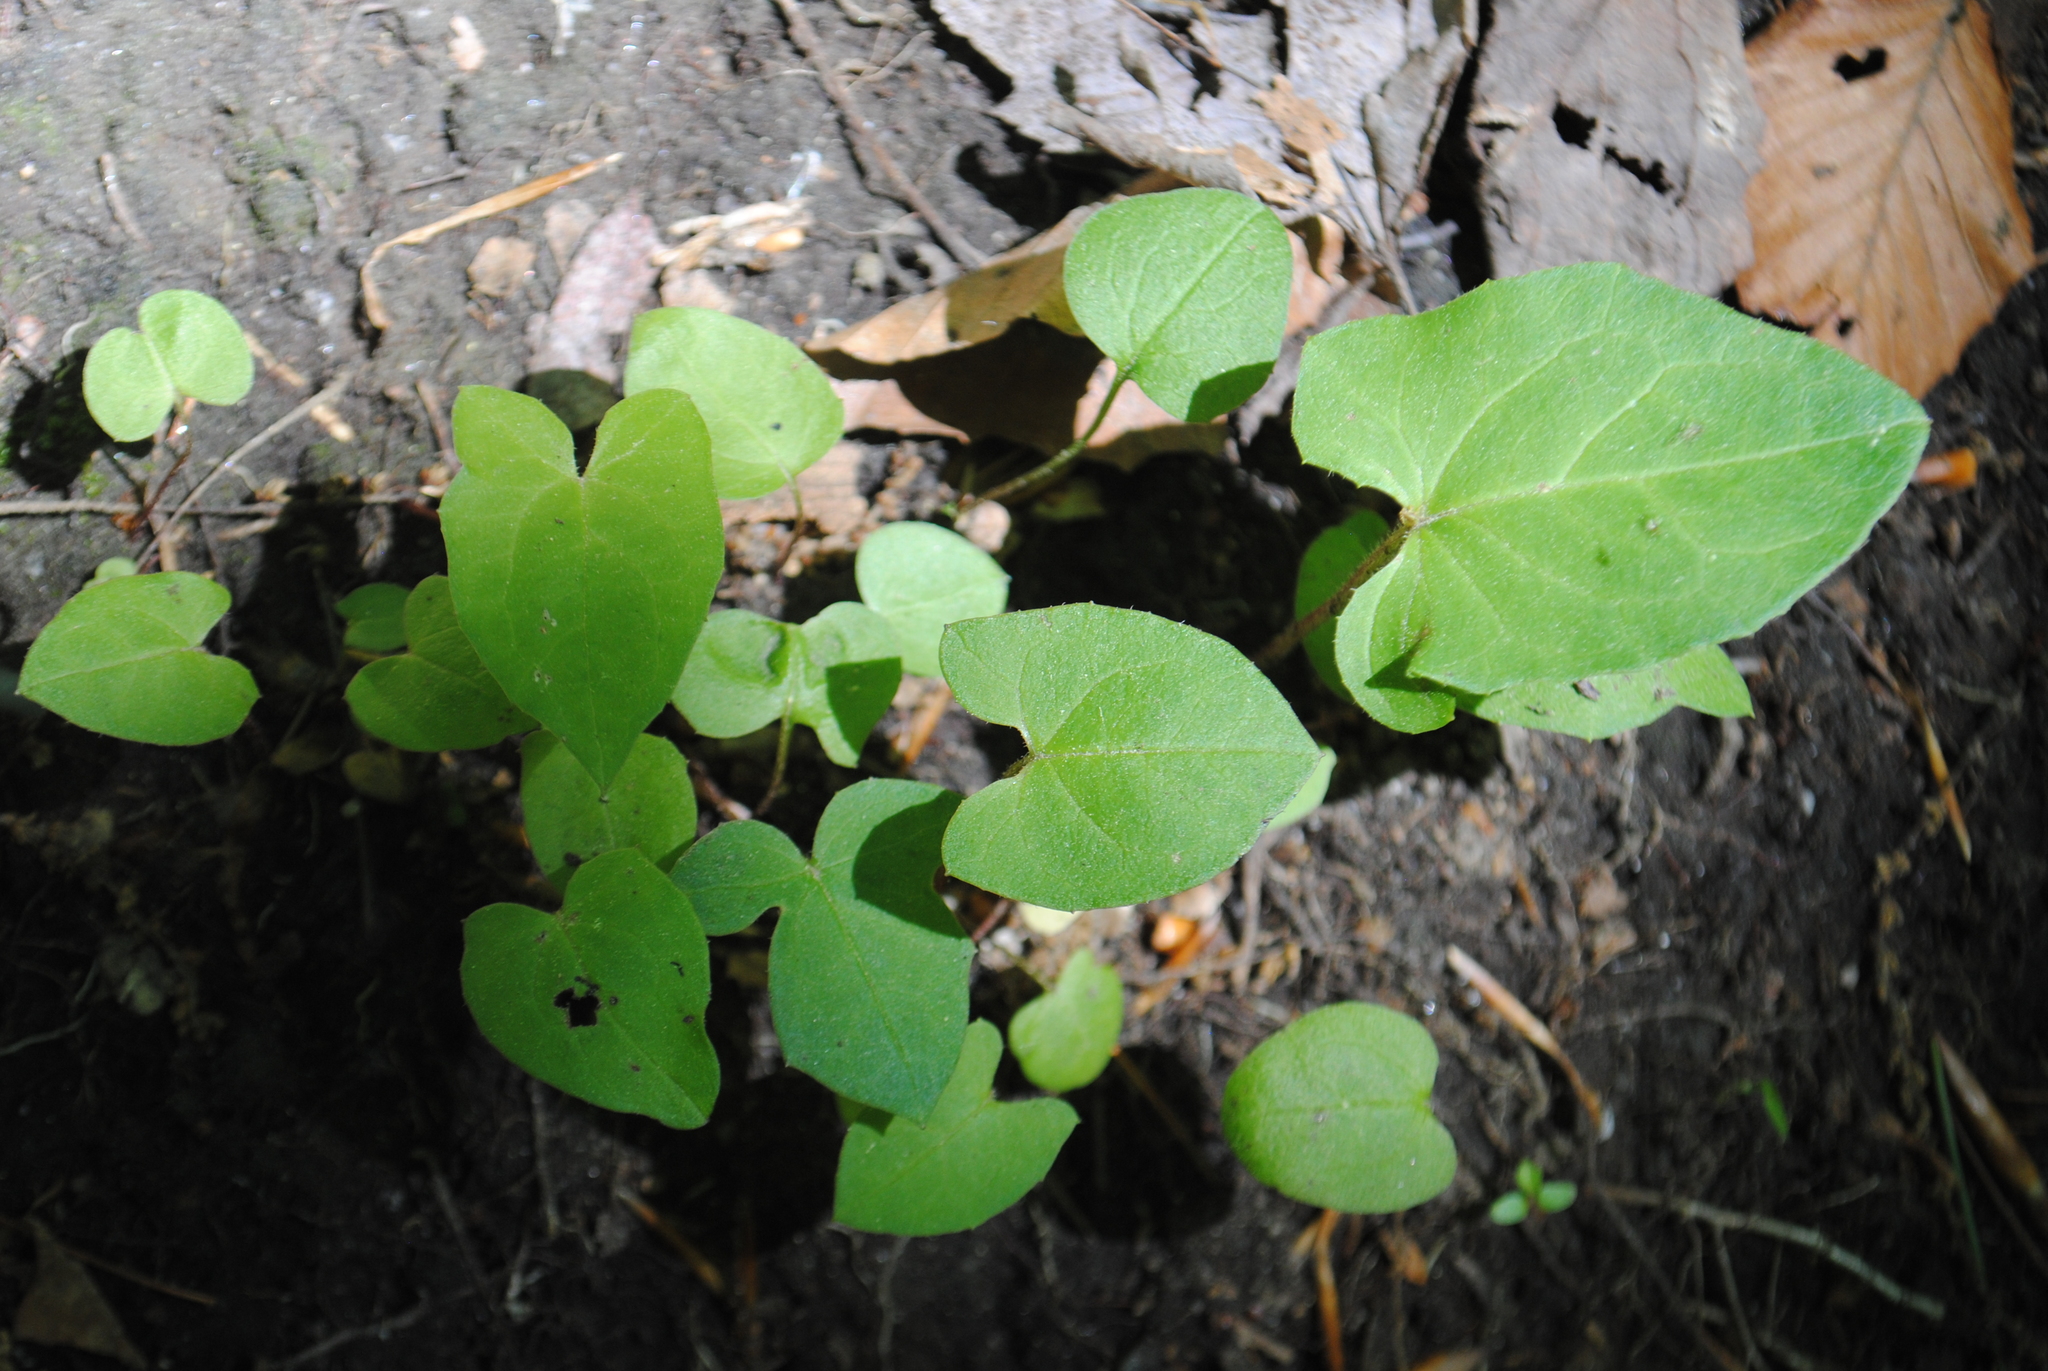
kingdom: Plantae
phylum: Tracheophyta
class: Magnoliopsida
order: Asterales
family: Asteraceae
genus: Nabalus
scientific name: Nabalus
